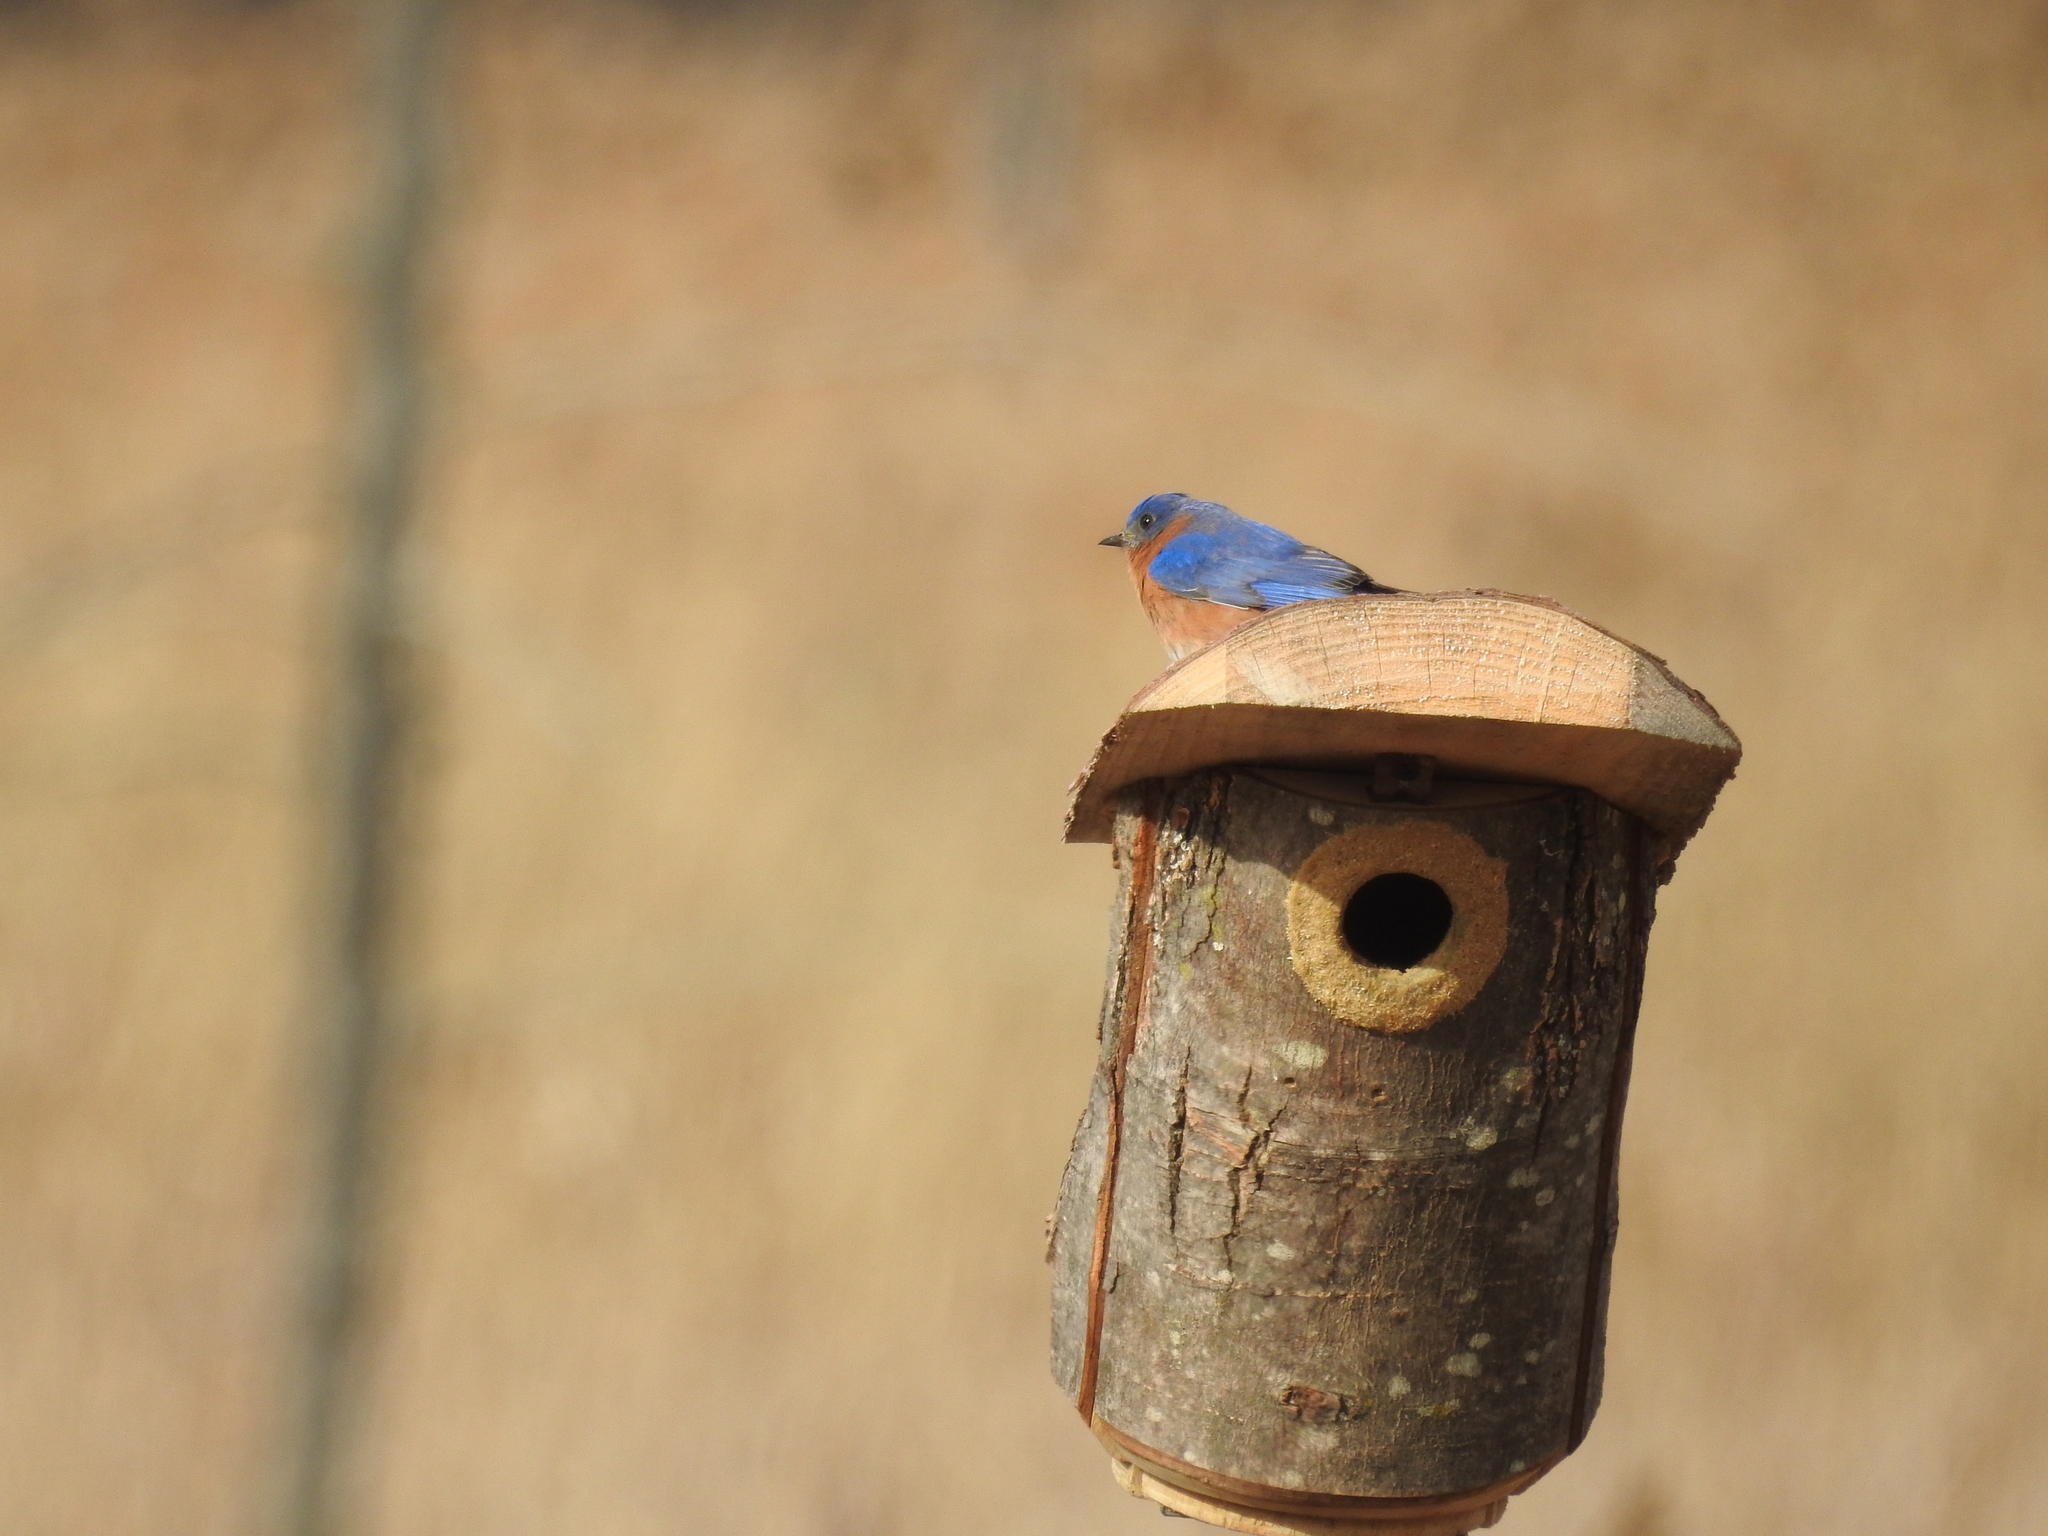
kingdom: Animalia
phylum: Chordata
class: Aves
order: Passeriformes
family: Turdidae
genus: Sialia
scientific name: Sialia sialis
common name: Eastern bluebird
